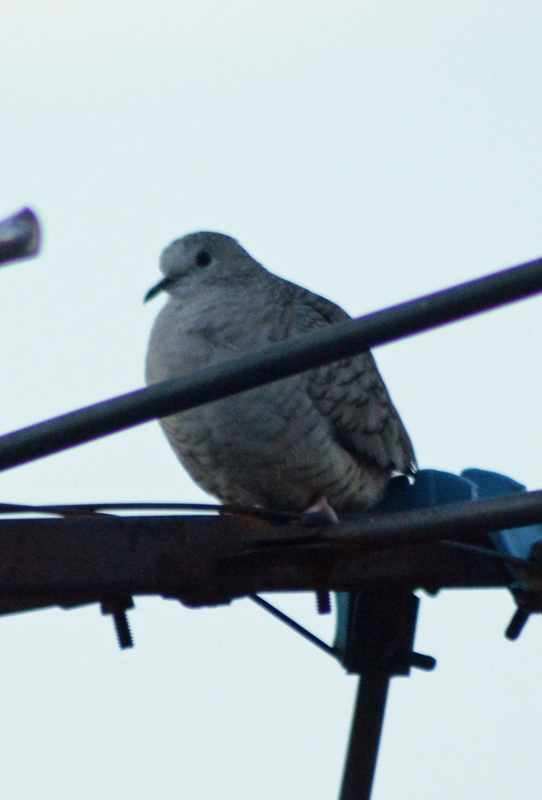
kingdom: Animalia
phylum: Chordata
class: Aves
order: Columbiformes
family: Columbidae
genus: Columbina
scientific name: Columbina inca
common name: Inca dove
